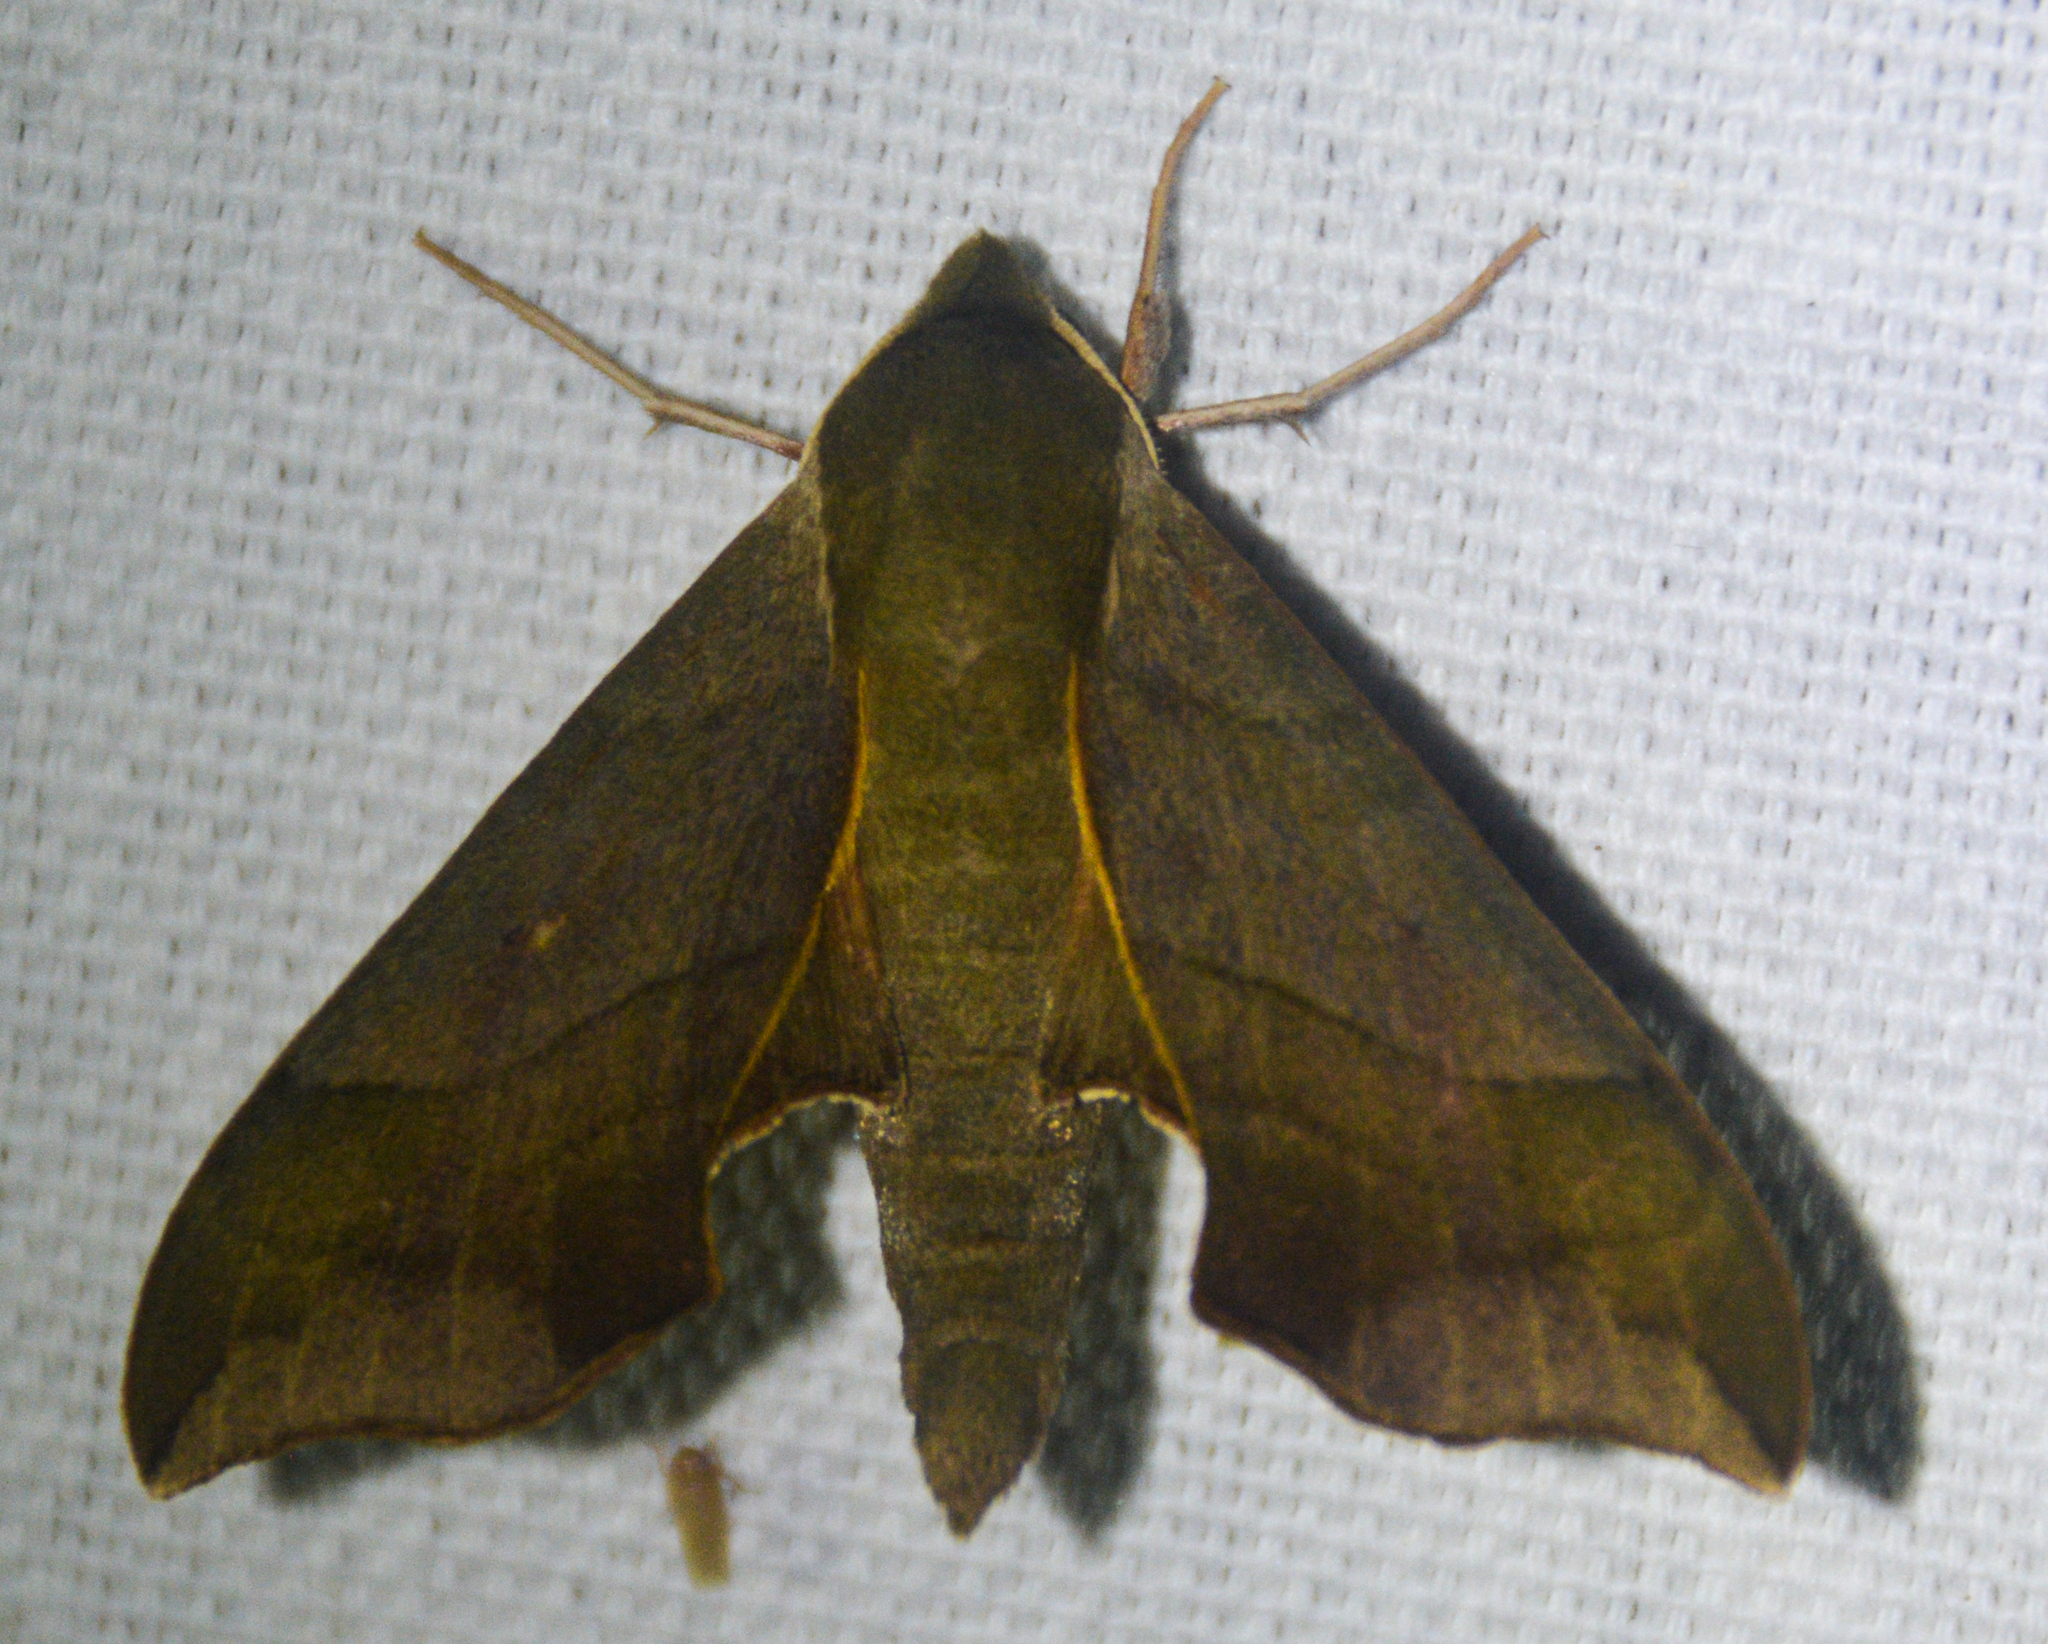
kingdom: Animalia
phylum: Arthropoda
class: Insecta
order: Lepidoptera
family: Sphingidae
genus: Darapsa
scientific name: Darapsa myron
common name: Hog sphinx
